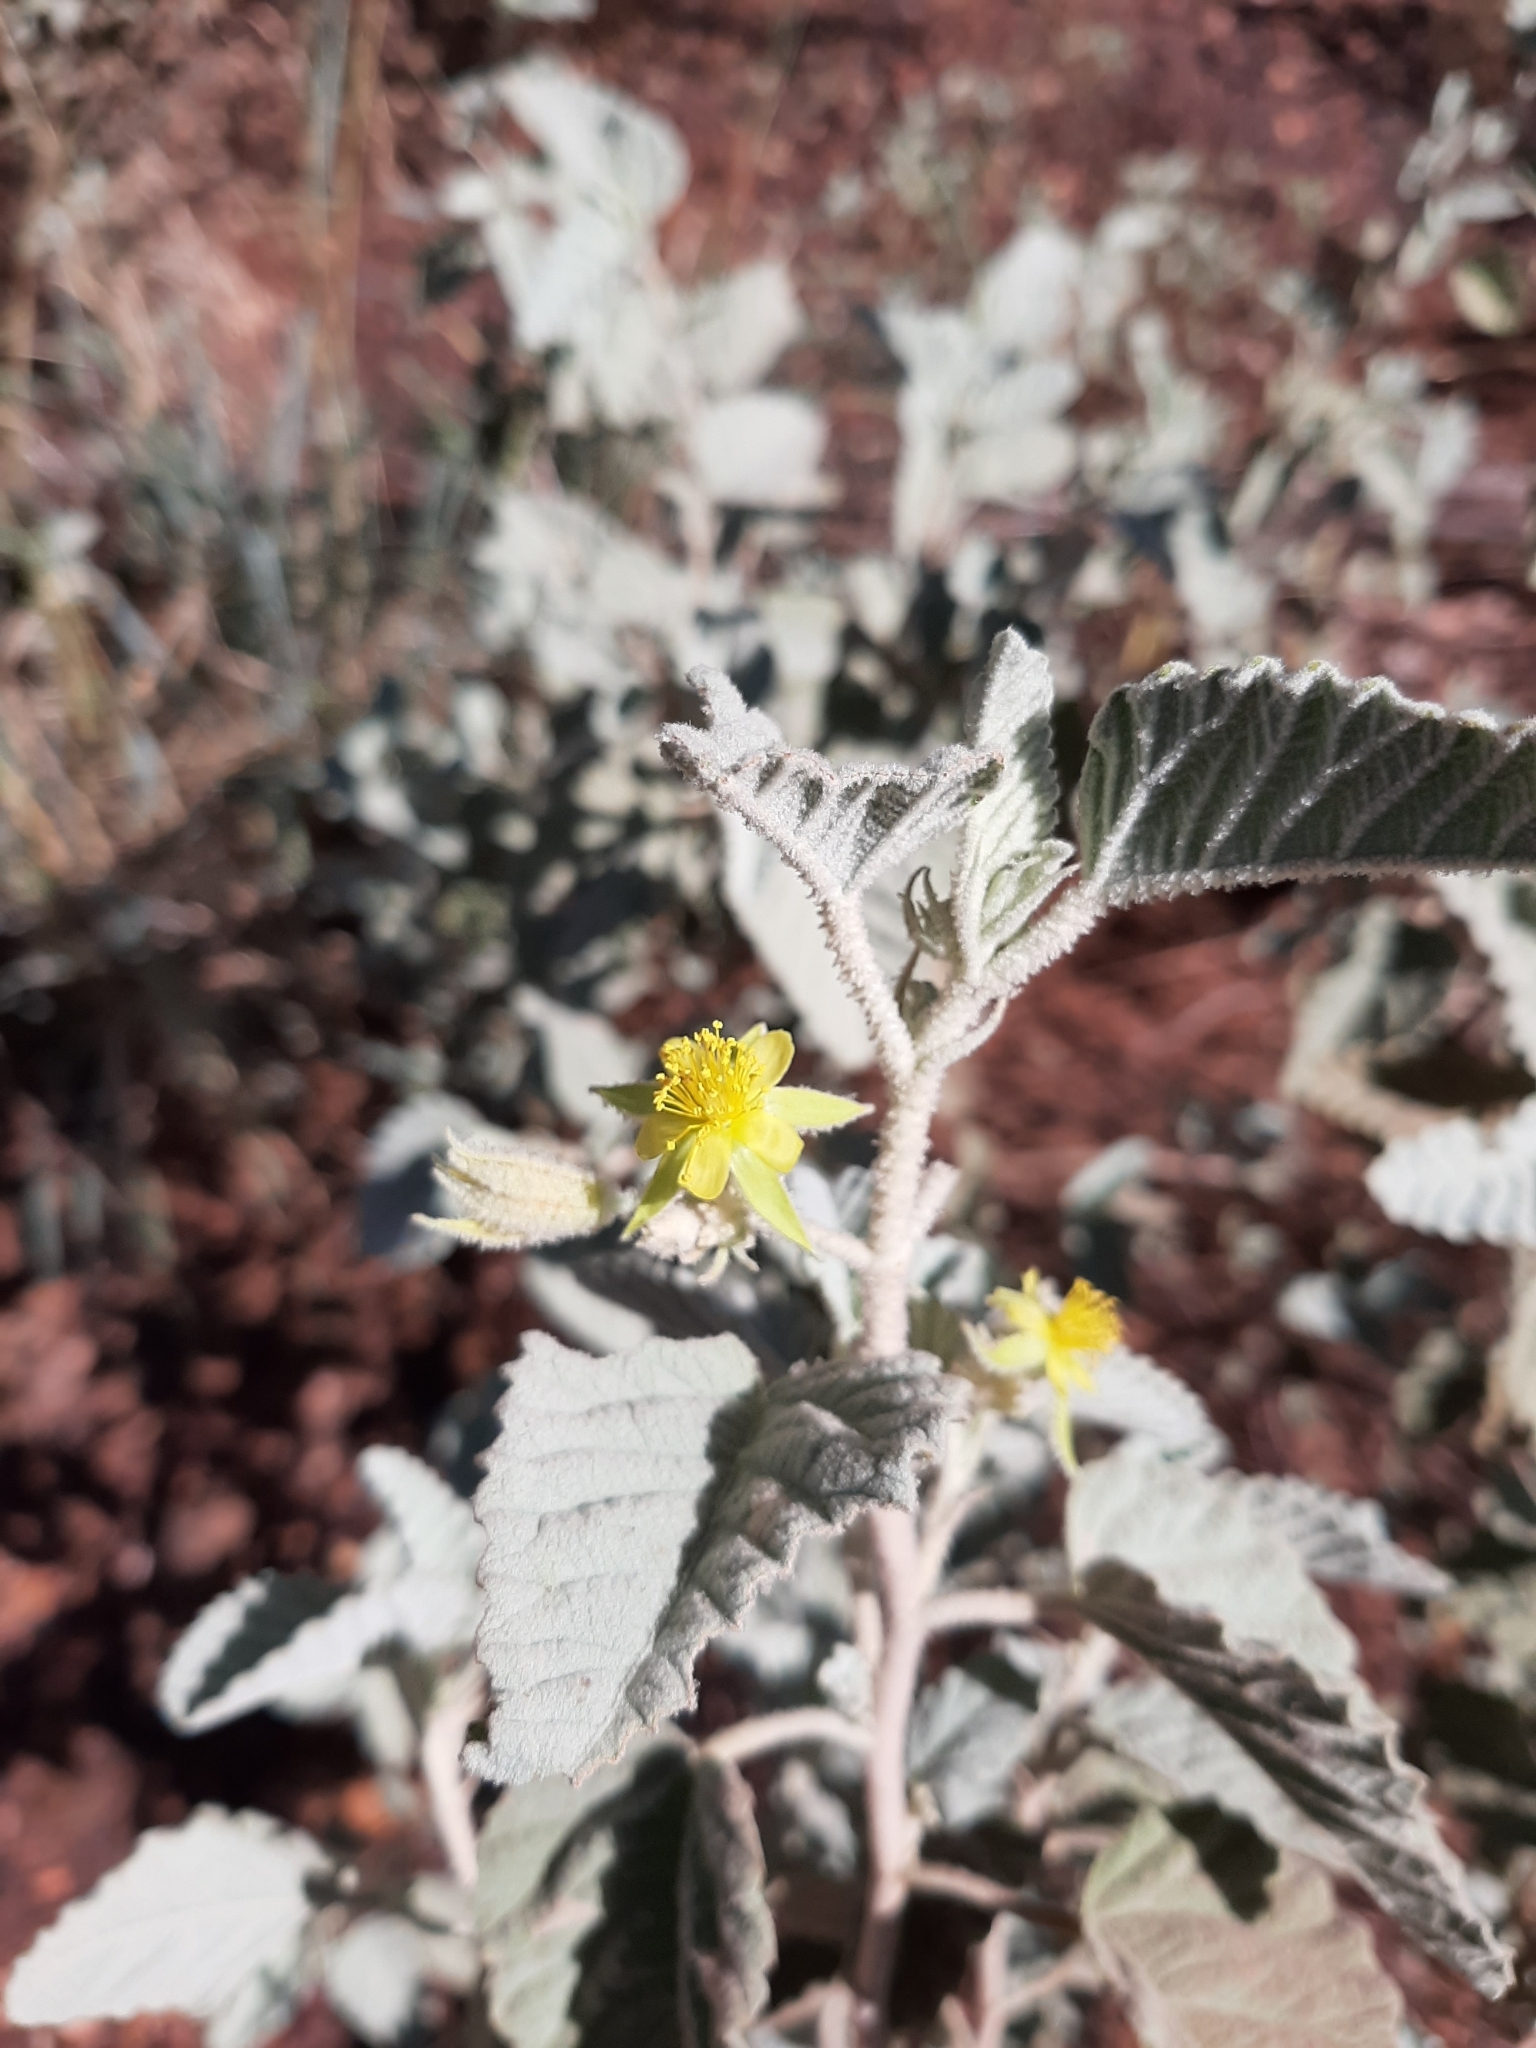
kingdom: Plantae
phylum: Tracheophyta
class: Magnoliopsida
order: Malvales
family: Malvaceae
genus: Corchorus
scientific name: Corchorus chrozophorifolius
